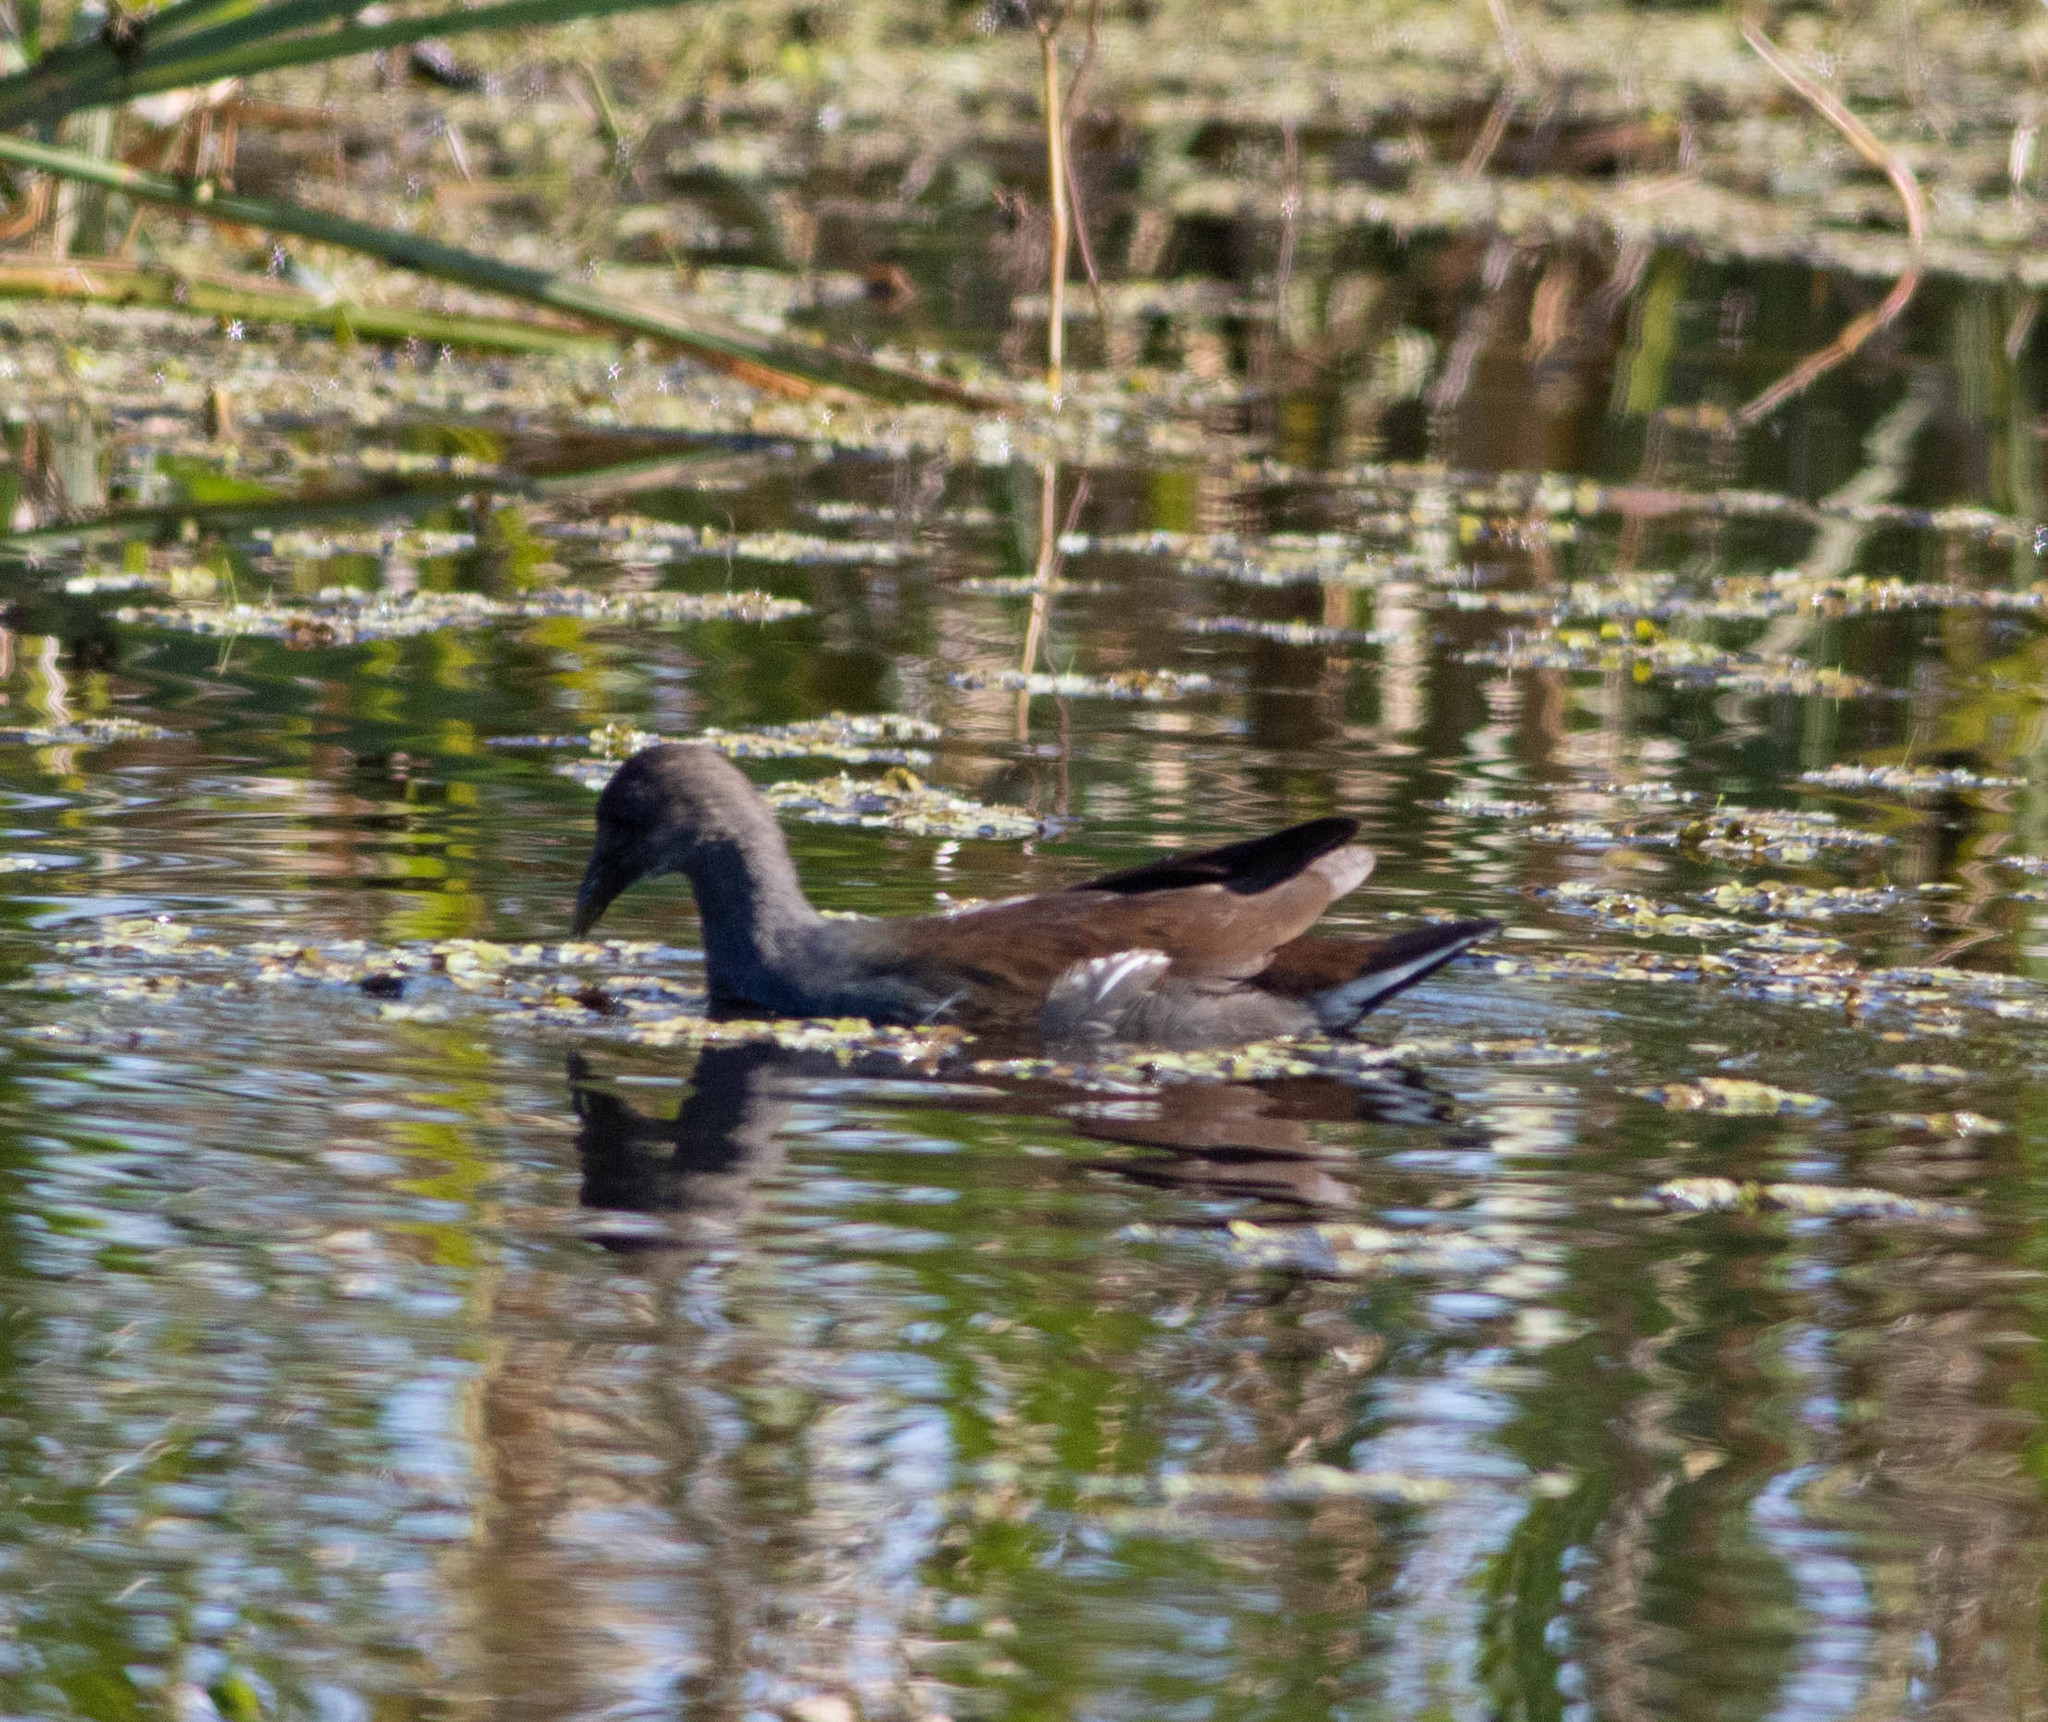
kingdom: Animalia
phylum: Chordata
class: Aves
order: Gruiformes
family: Rallidae
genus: Gallinula
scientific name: Gallinula chloropus
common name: Common moorhen
